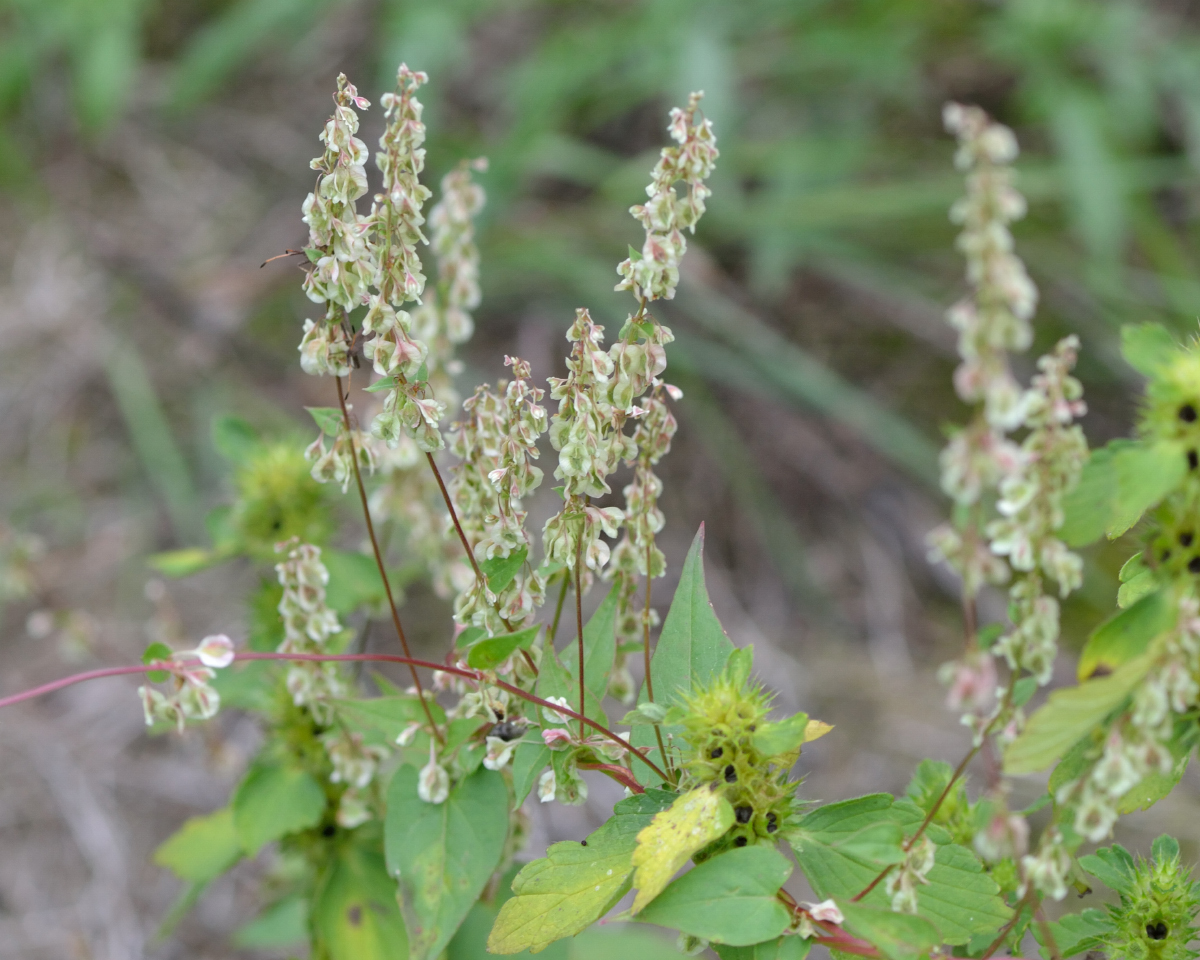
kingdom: Plantae
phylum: Tracheophyta
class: Magnoliopsida
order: Caryophyllales
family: Polygonaceae
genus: Fallopia
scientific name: Fallopia dumetorum
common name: Copse-bindweed
